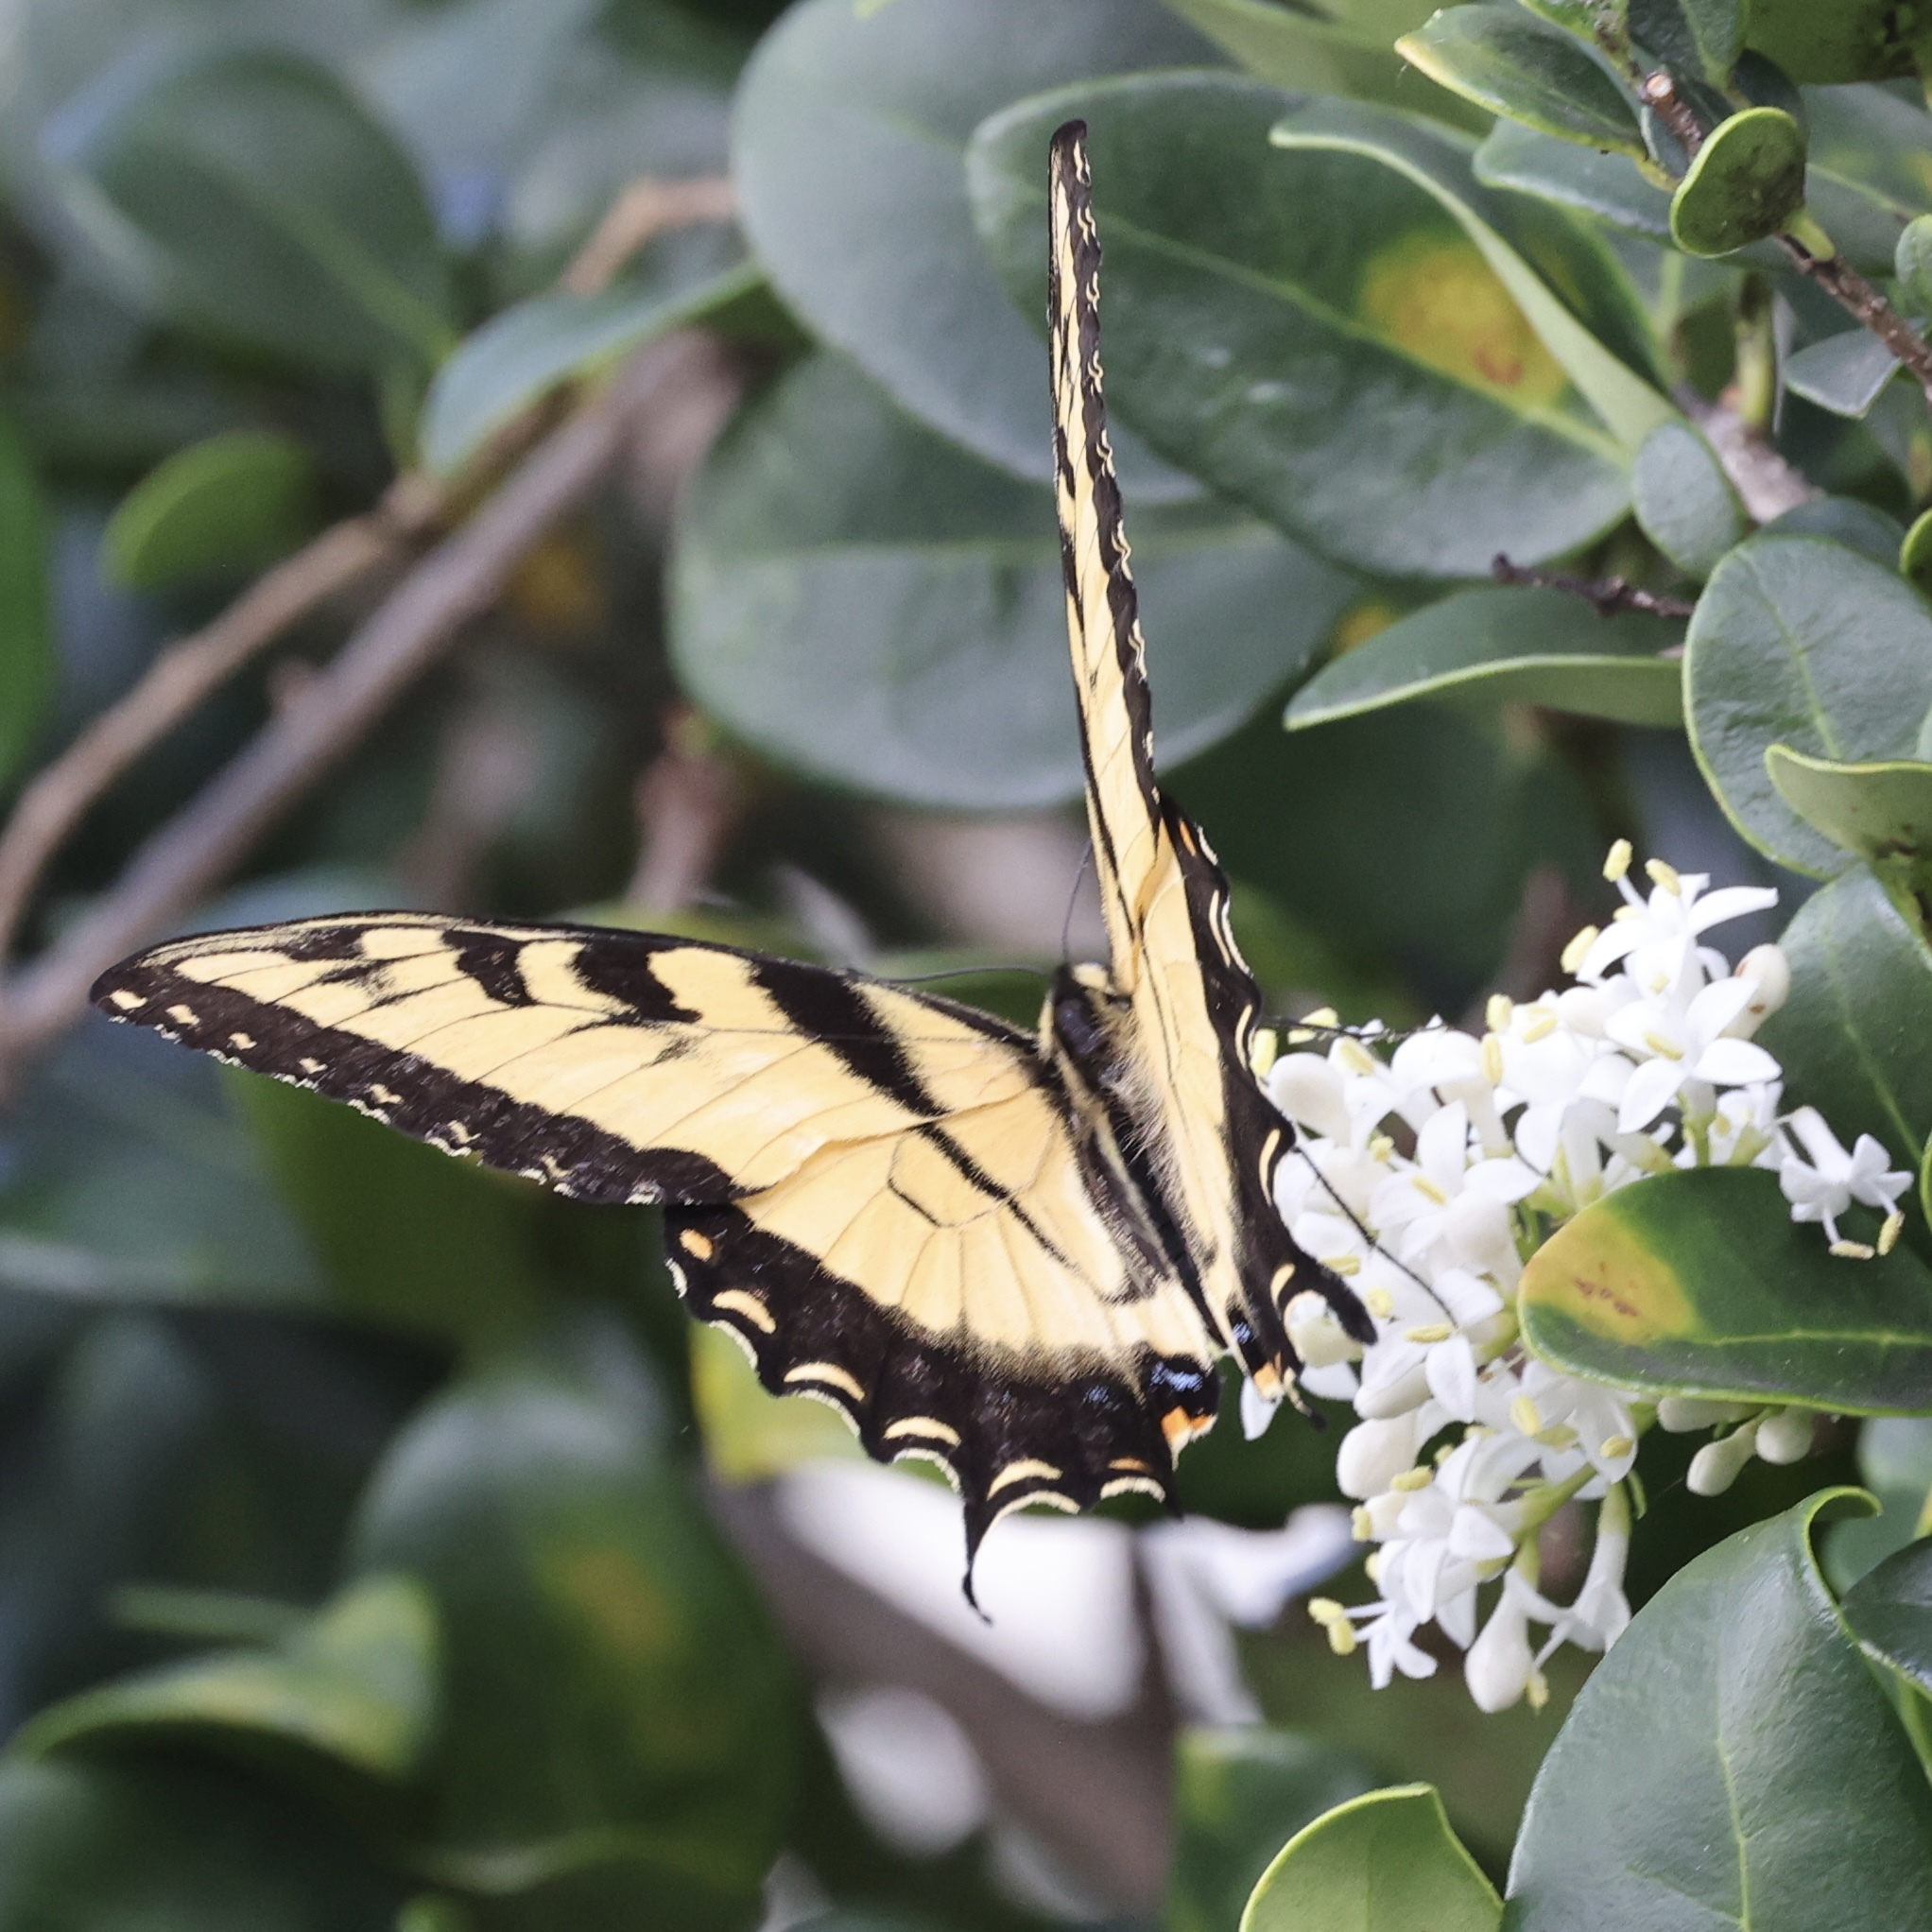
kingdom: Animalia
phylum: Arthropoda
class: Insecta
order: Lepidoptera
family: Papilionidae
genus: Papilio
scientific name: Papilio glaucus
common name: Tiger swallowtail
